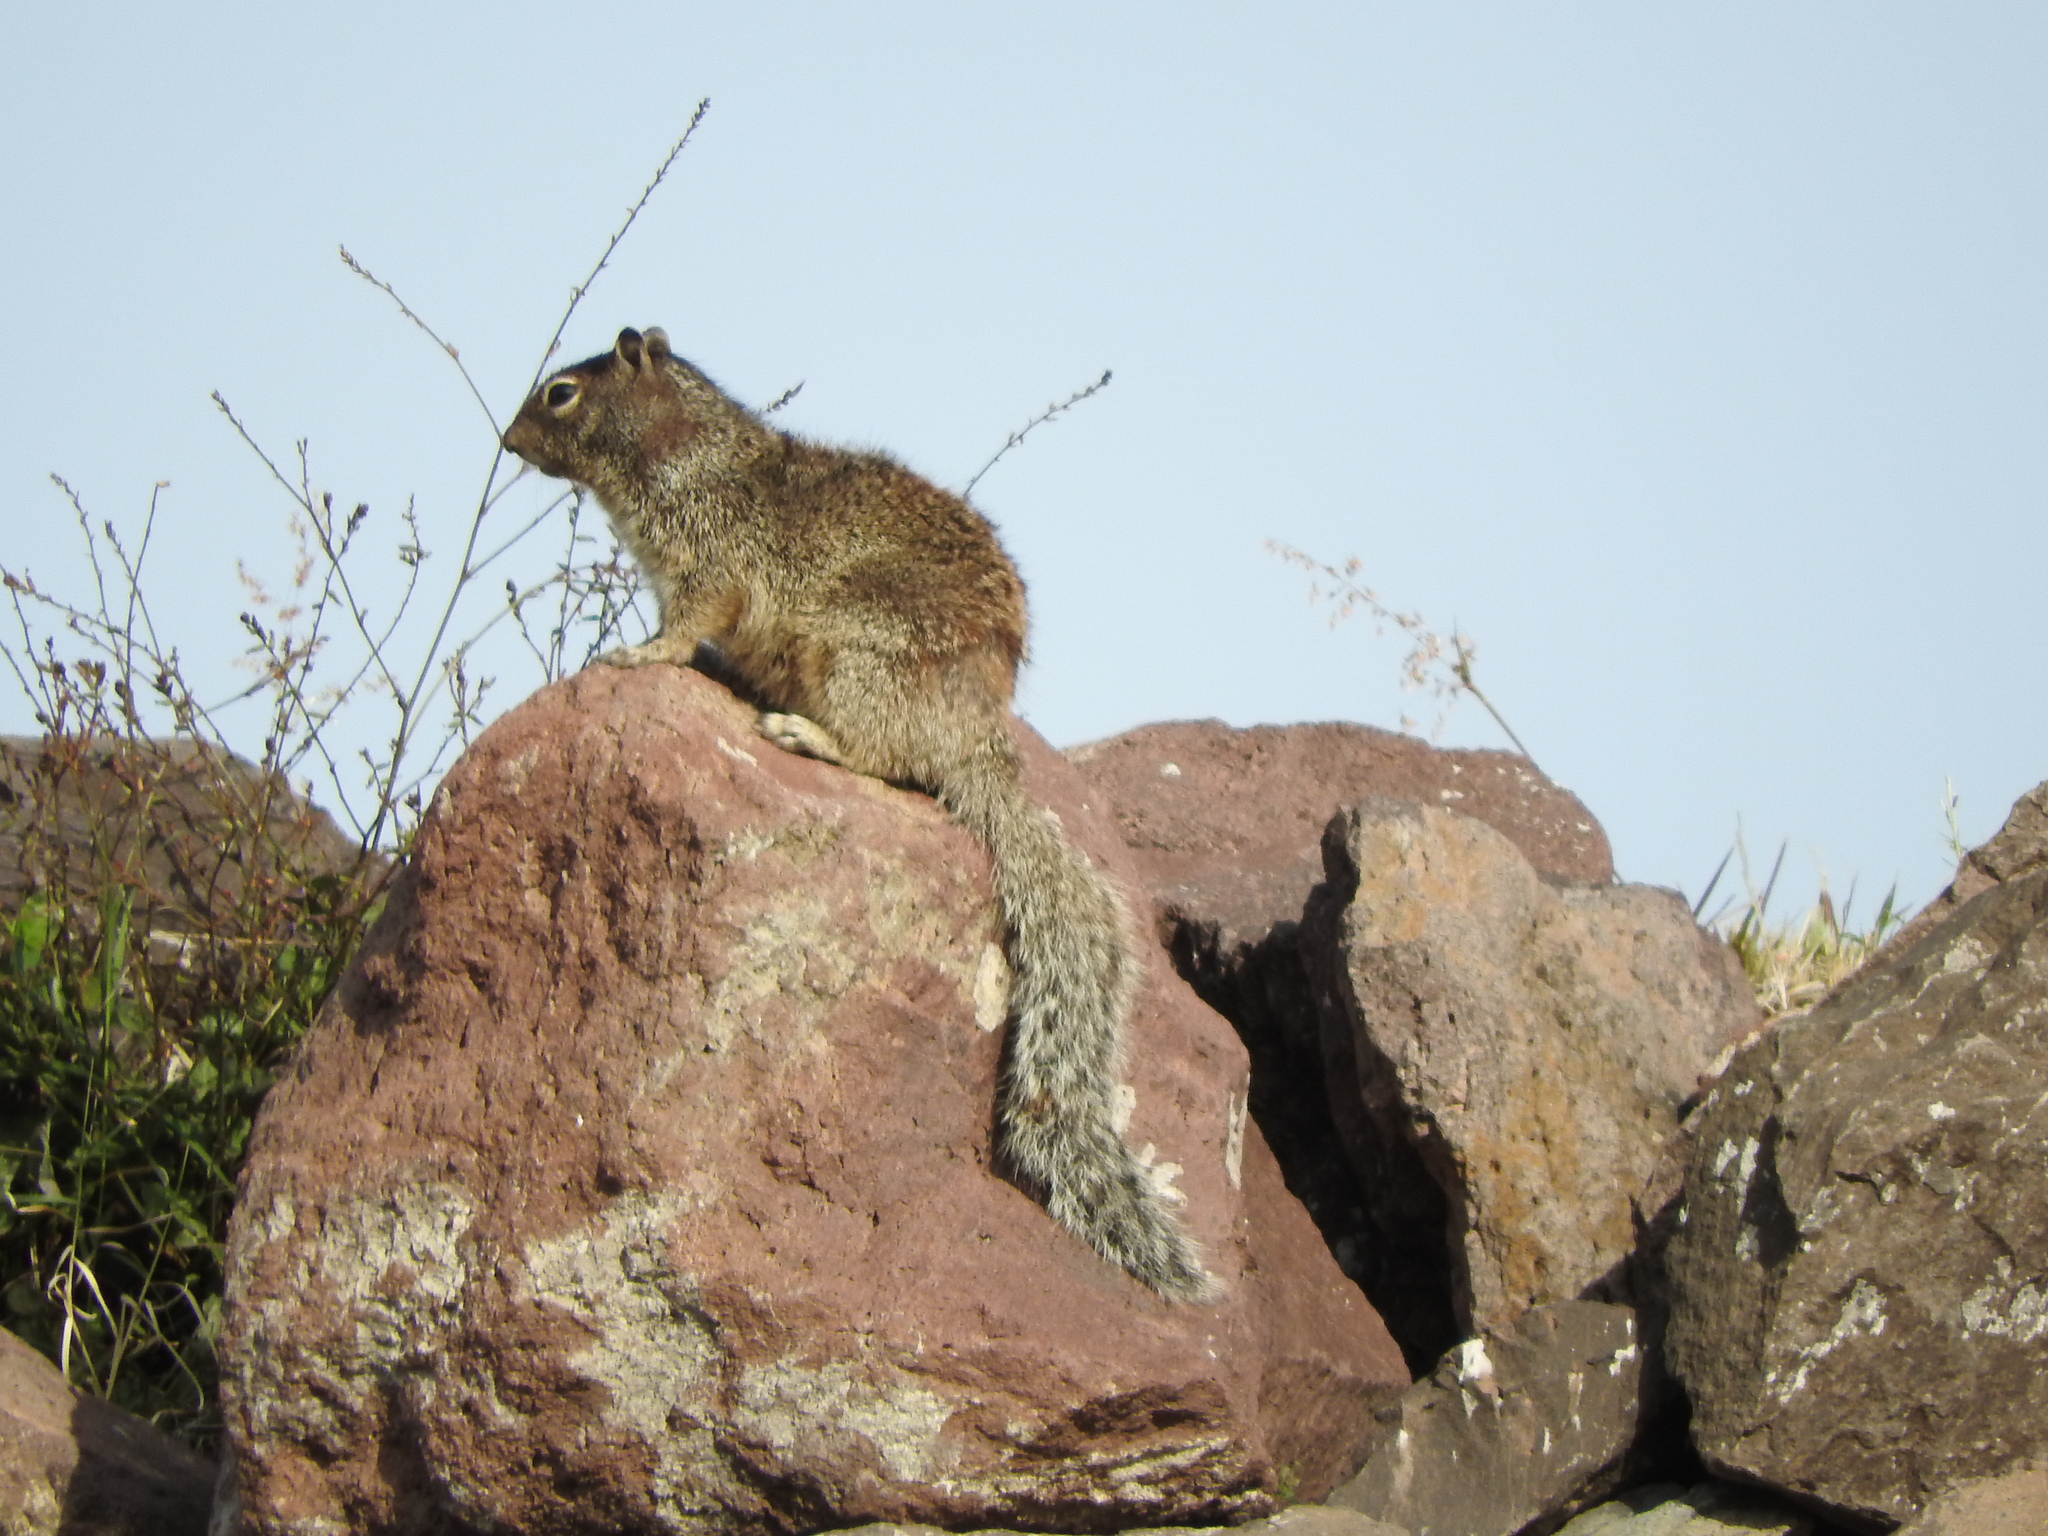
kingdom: Animalia
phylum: Chordata
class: Mammalia
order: Rodentia
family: Sciuridae
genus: Otospermophilus
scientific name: Otospermophilus variegatus
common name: Rock squirrel
